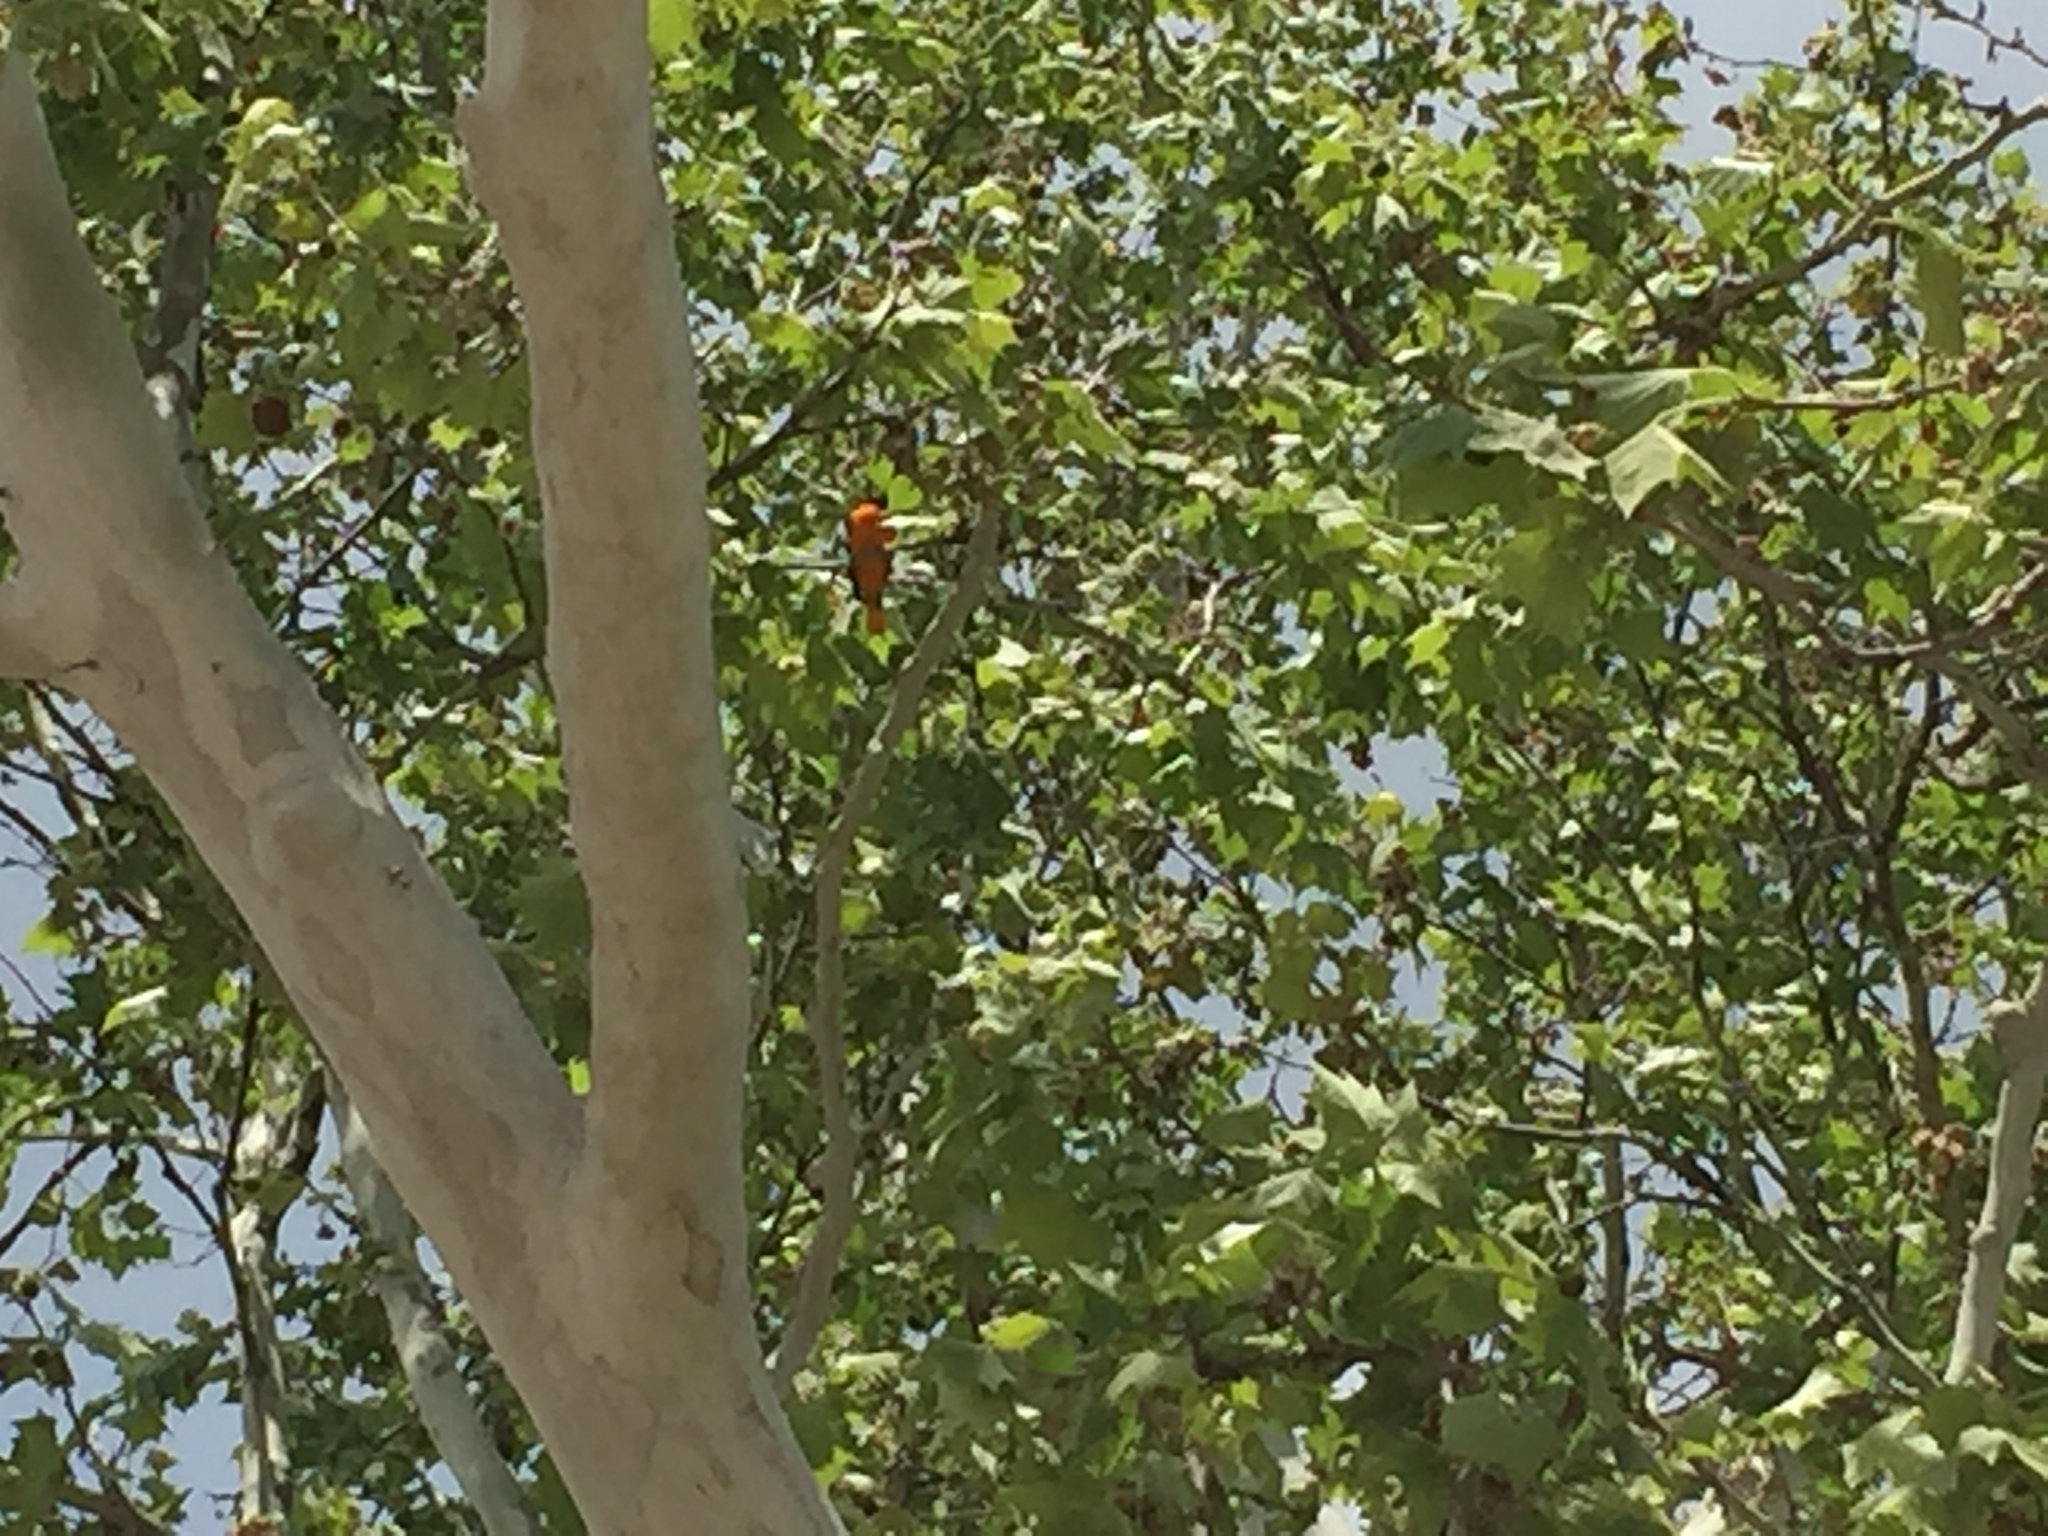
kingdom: Animalia
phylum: Chordata
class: Aves
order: Passeriformes
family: Icteridae
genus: Icterus
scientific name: Icterus galbula
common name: Baltimore oriole
